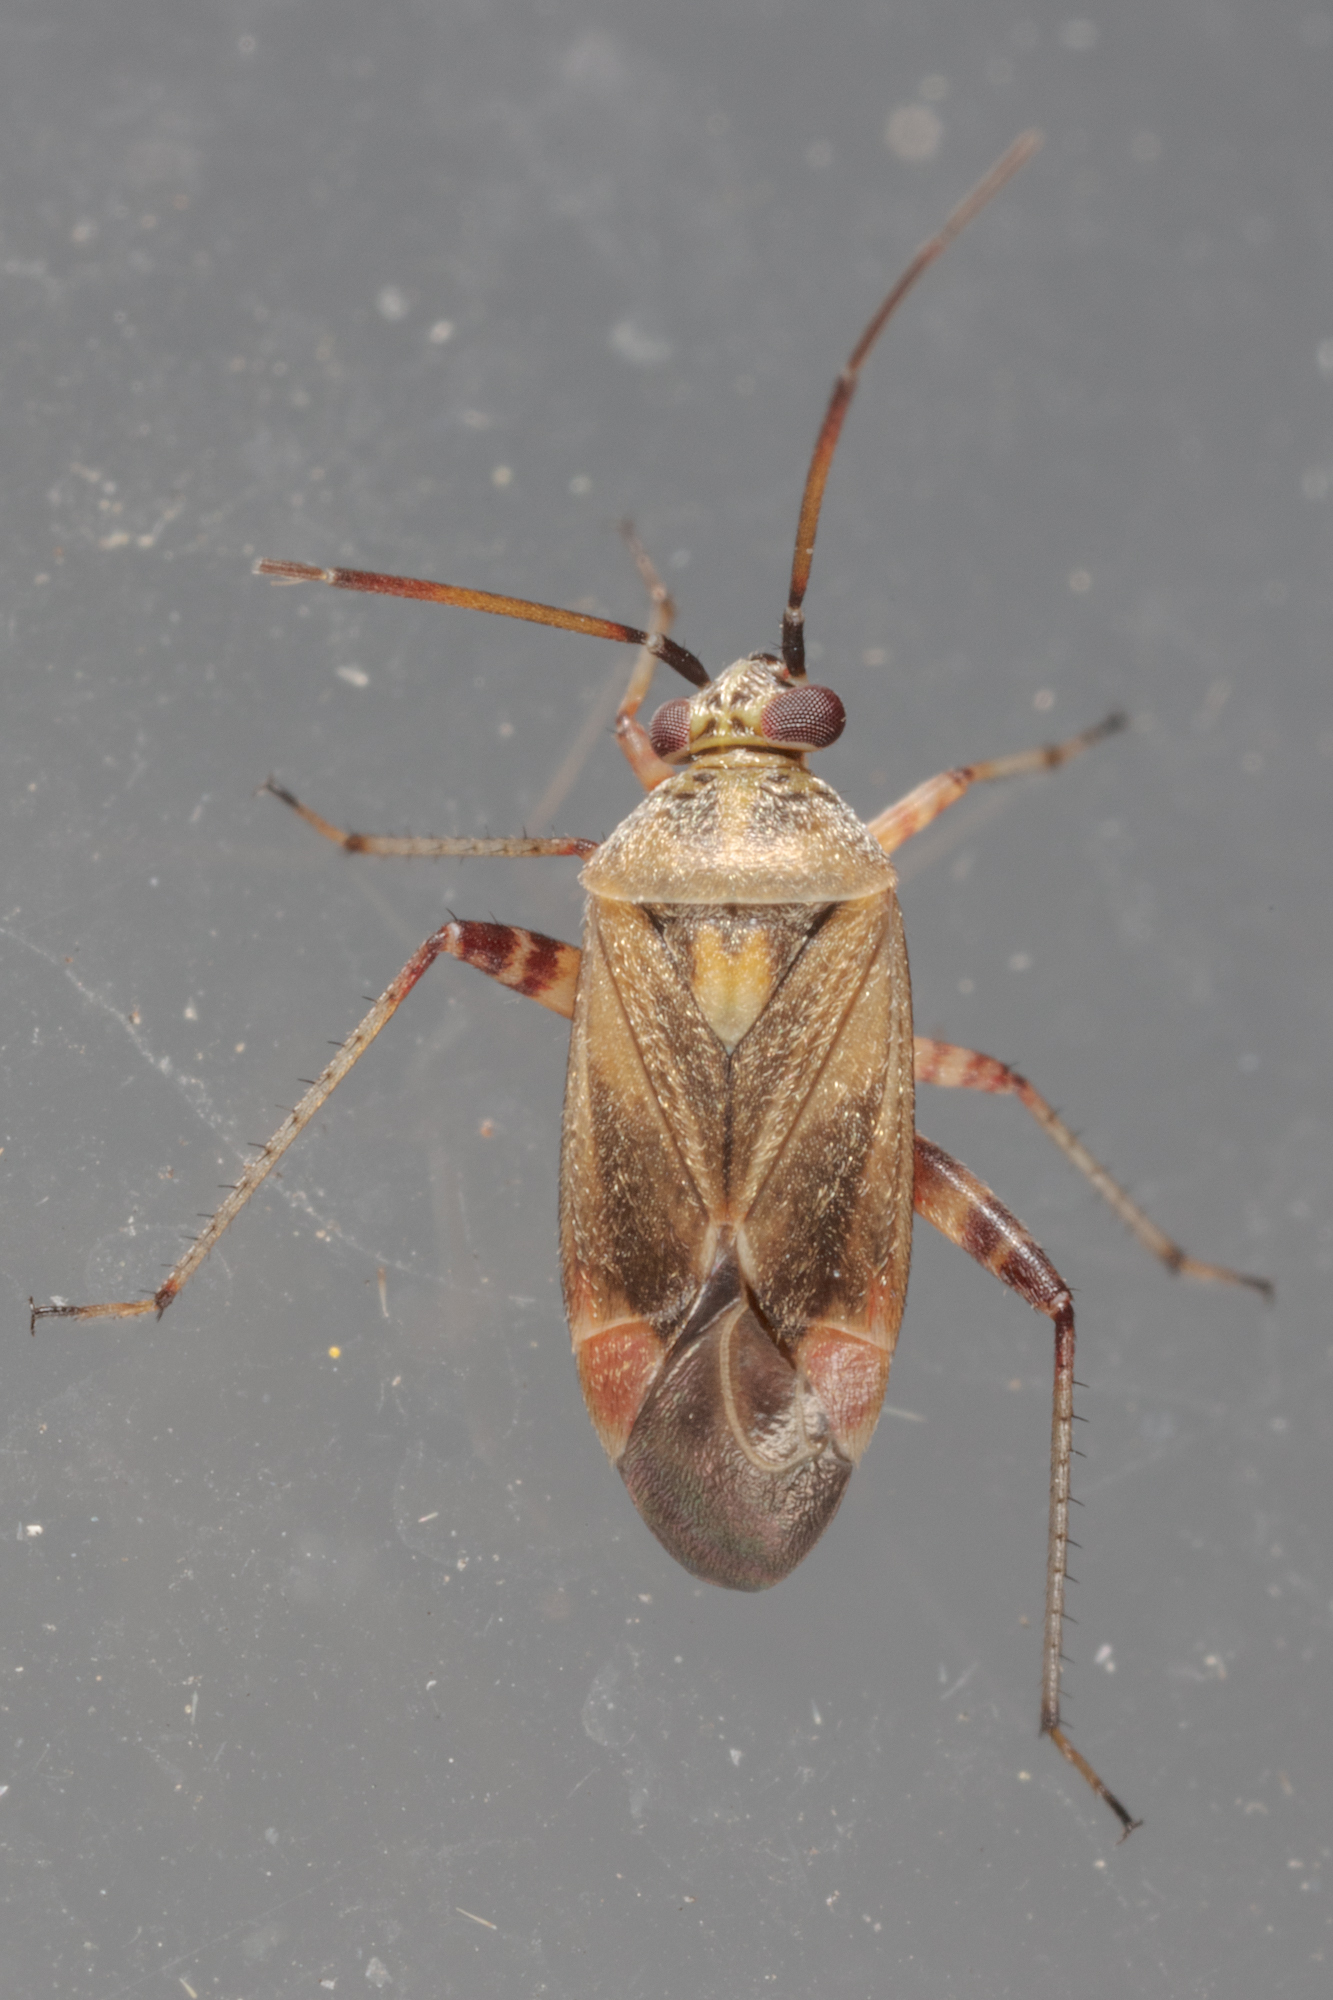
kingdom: Animalia
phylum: Arthropoda
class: Insecta
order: Hemiptera
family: Miridae
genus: Polymerus
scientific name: Polymerus basalis
